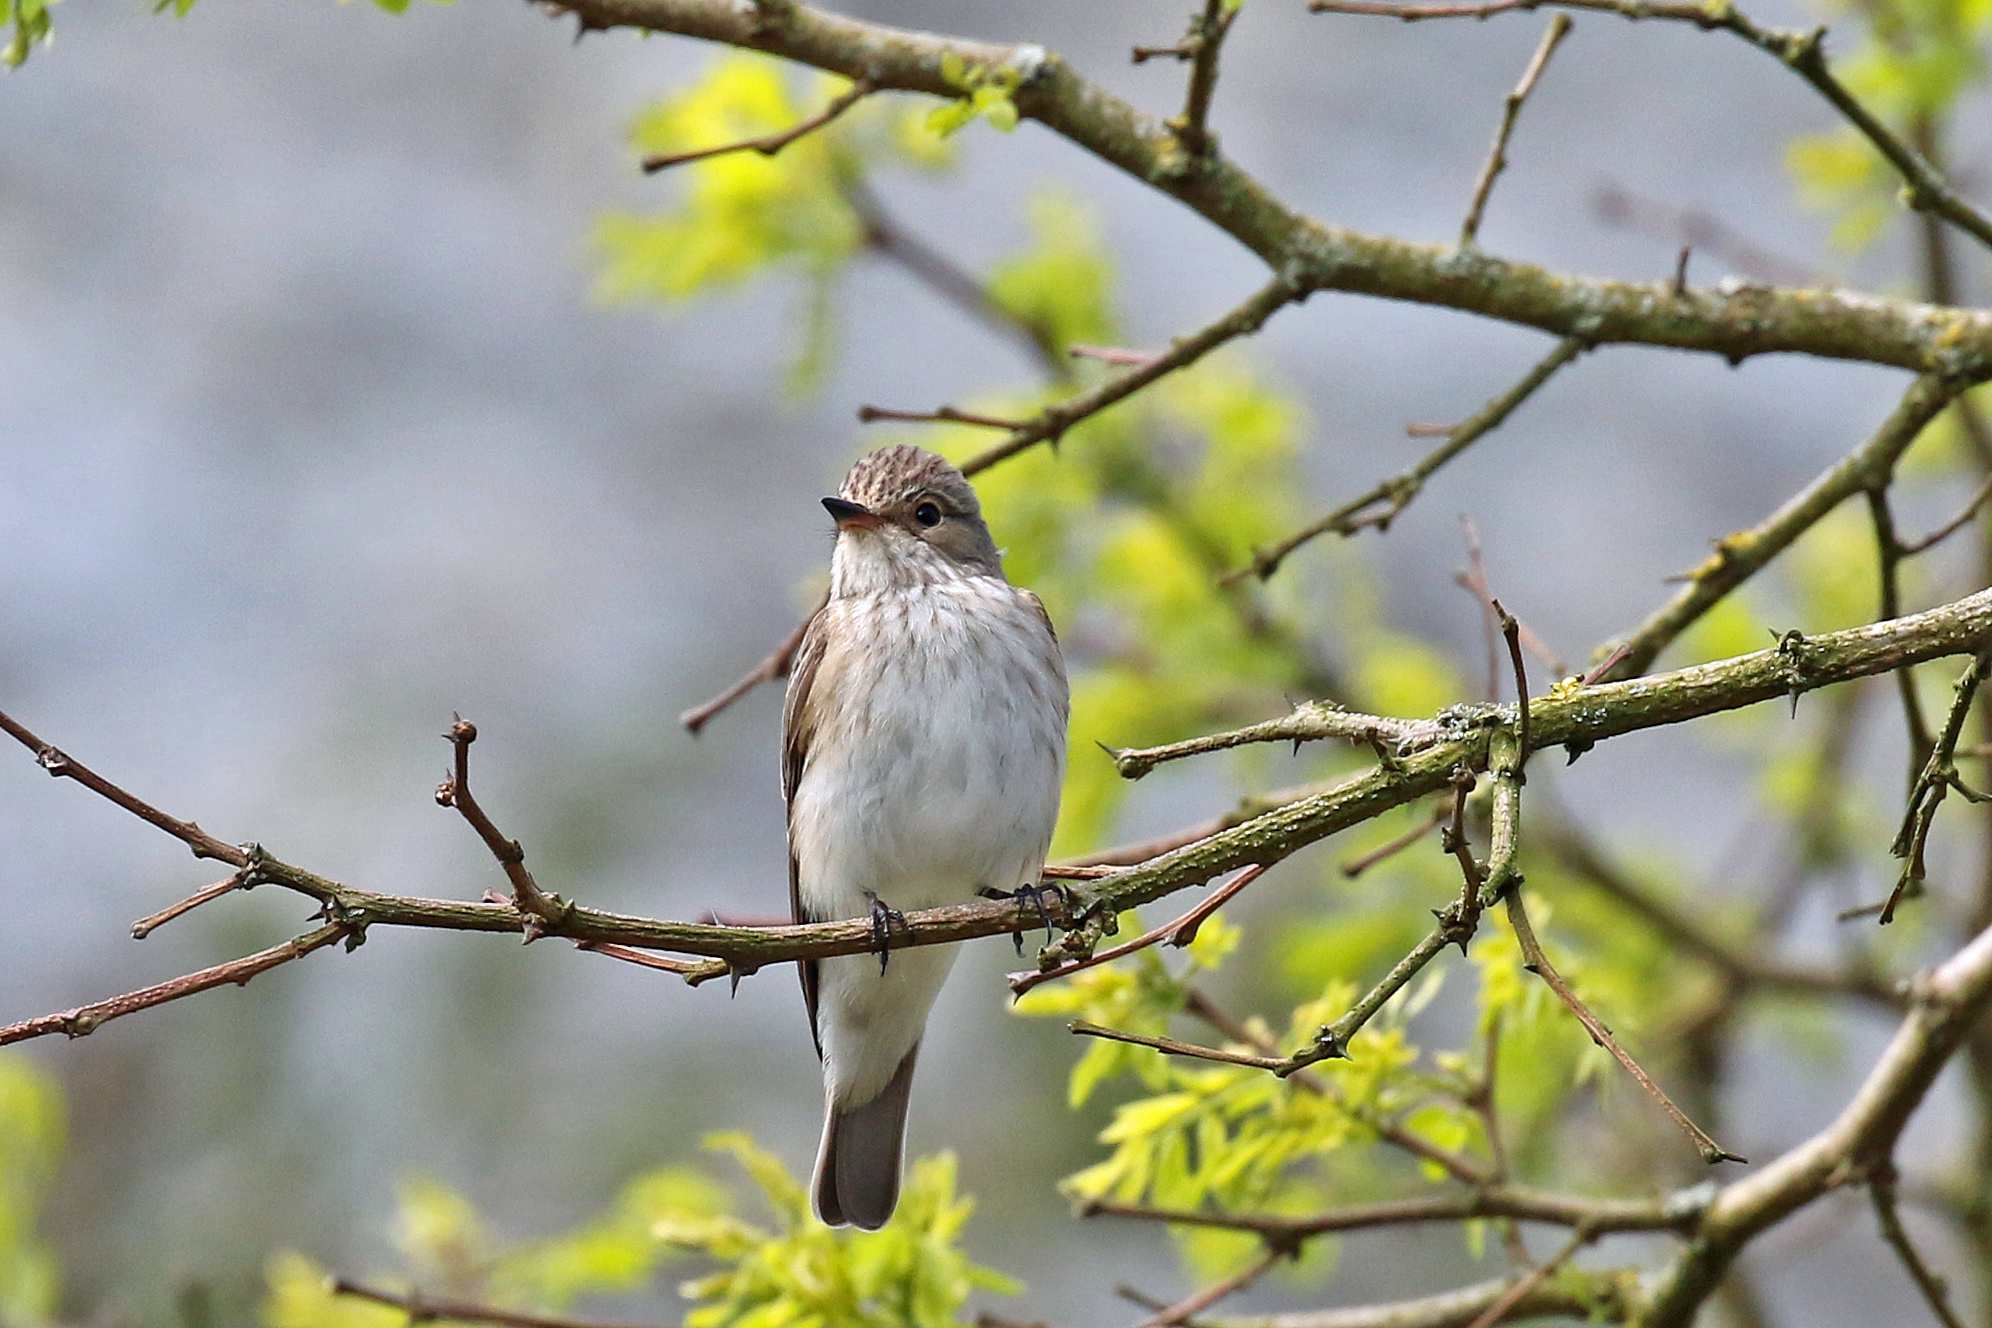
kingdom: Animalia
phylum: Chordata
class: Aves
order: Passeriformes
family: Muscicapidae
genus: Muscicapa
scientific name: Muscicapa striata
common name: Spotted flycatcher
